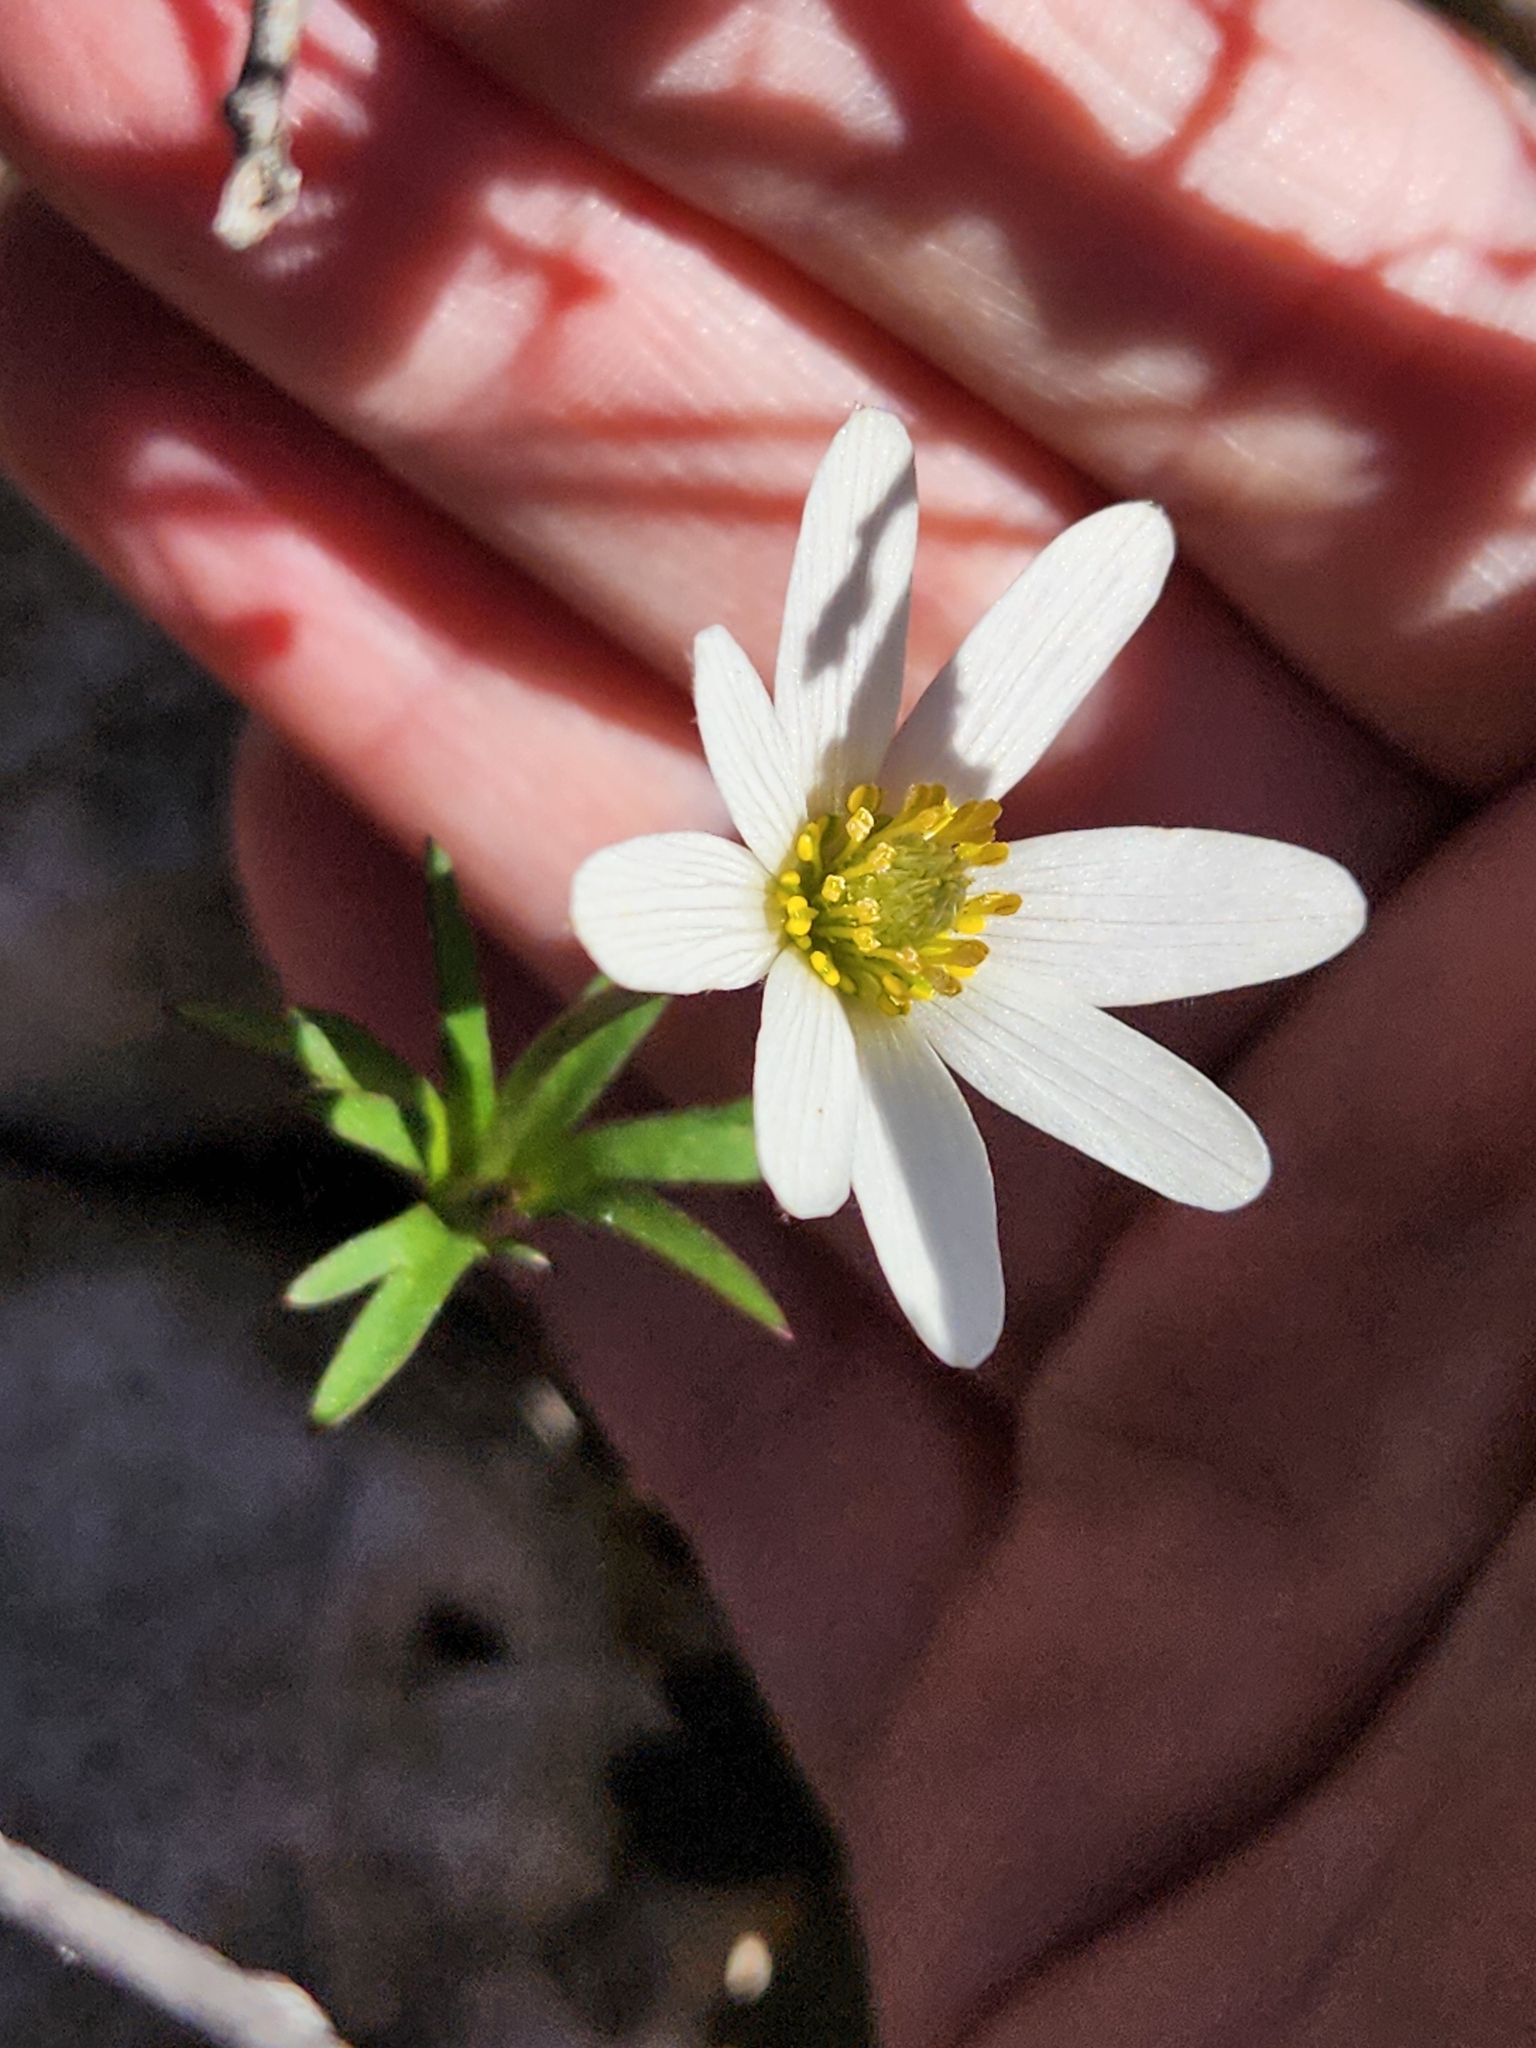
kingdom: Plantae
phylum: Tracheophyta
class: Magnoliopsida
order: Ranunculales
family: Ranunculaceae
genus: Anemone
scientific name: Anemone edwardsiana
